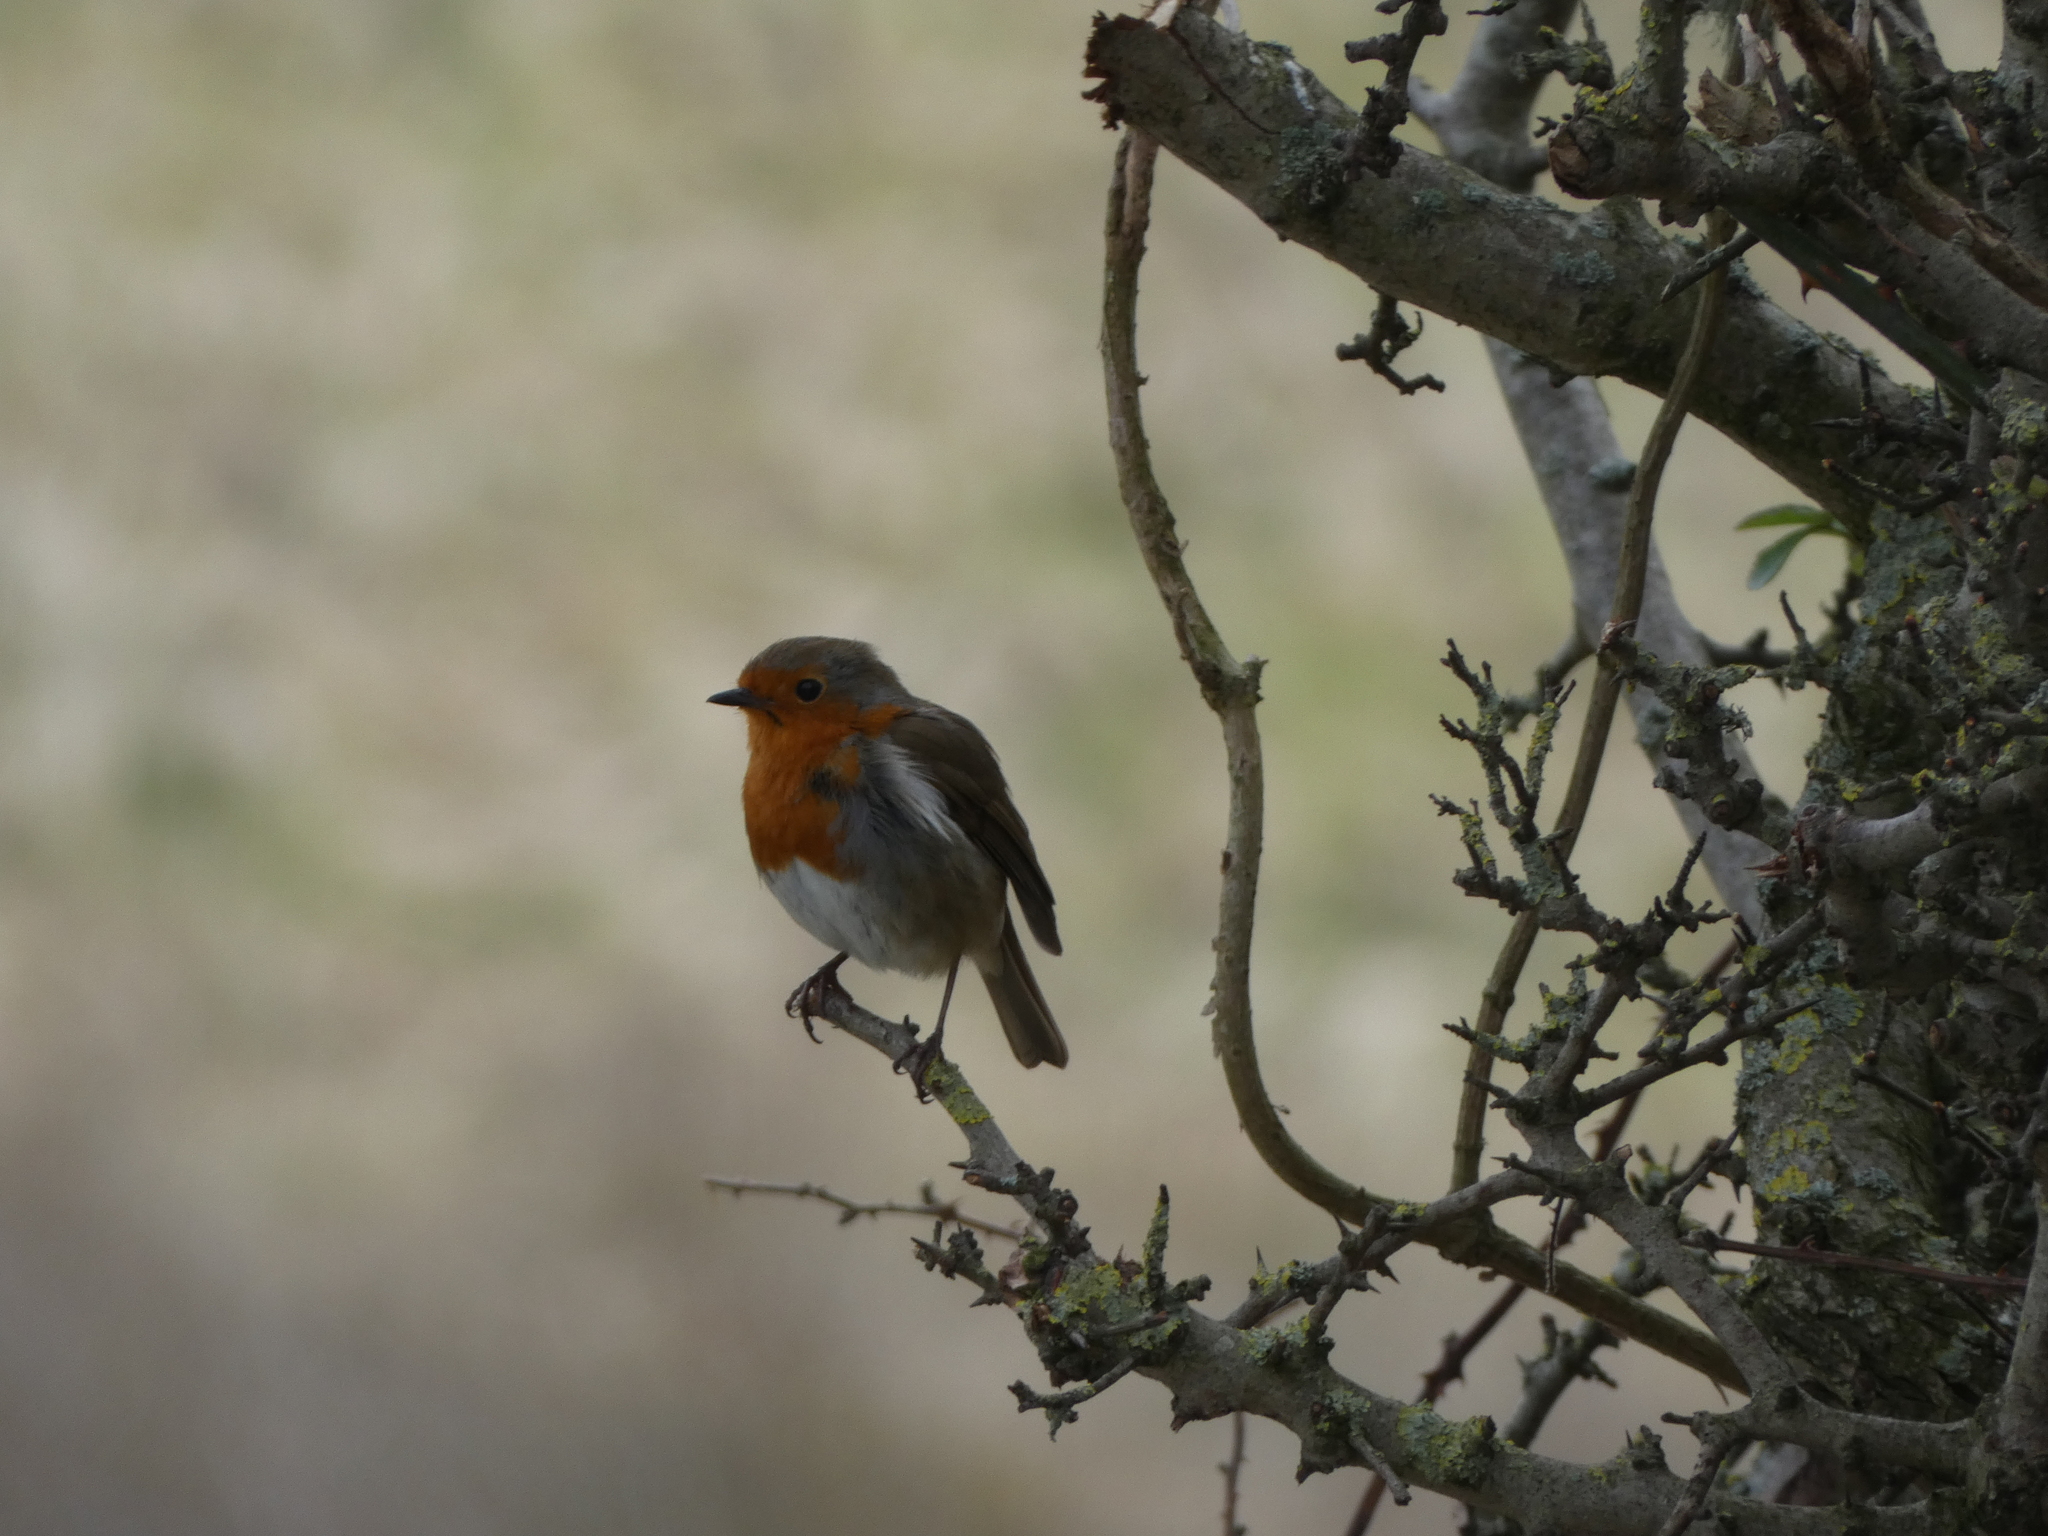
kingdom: Animalia
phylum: Chordata
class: Aves
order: Passeriformes
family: Muscicapidae
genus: Erithacus
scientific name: Erithacus rubecula
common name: European robin
